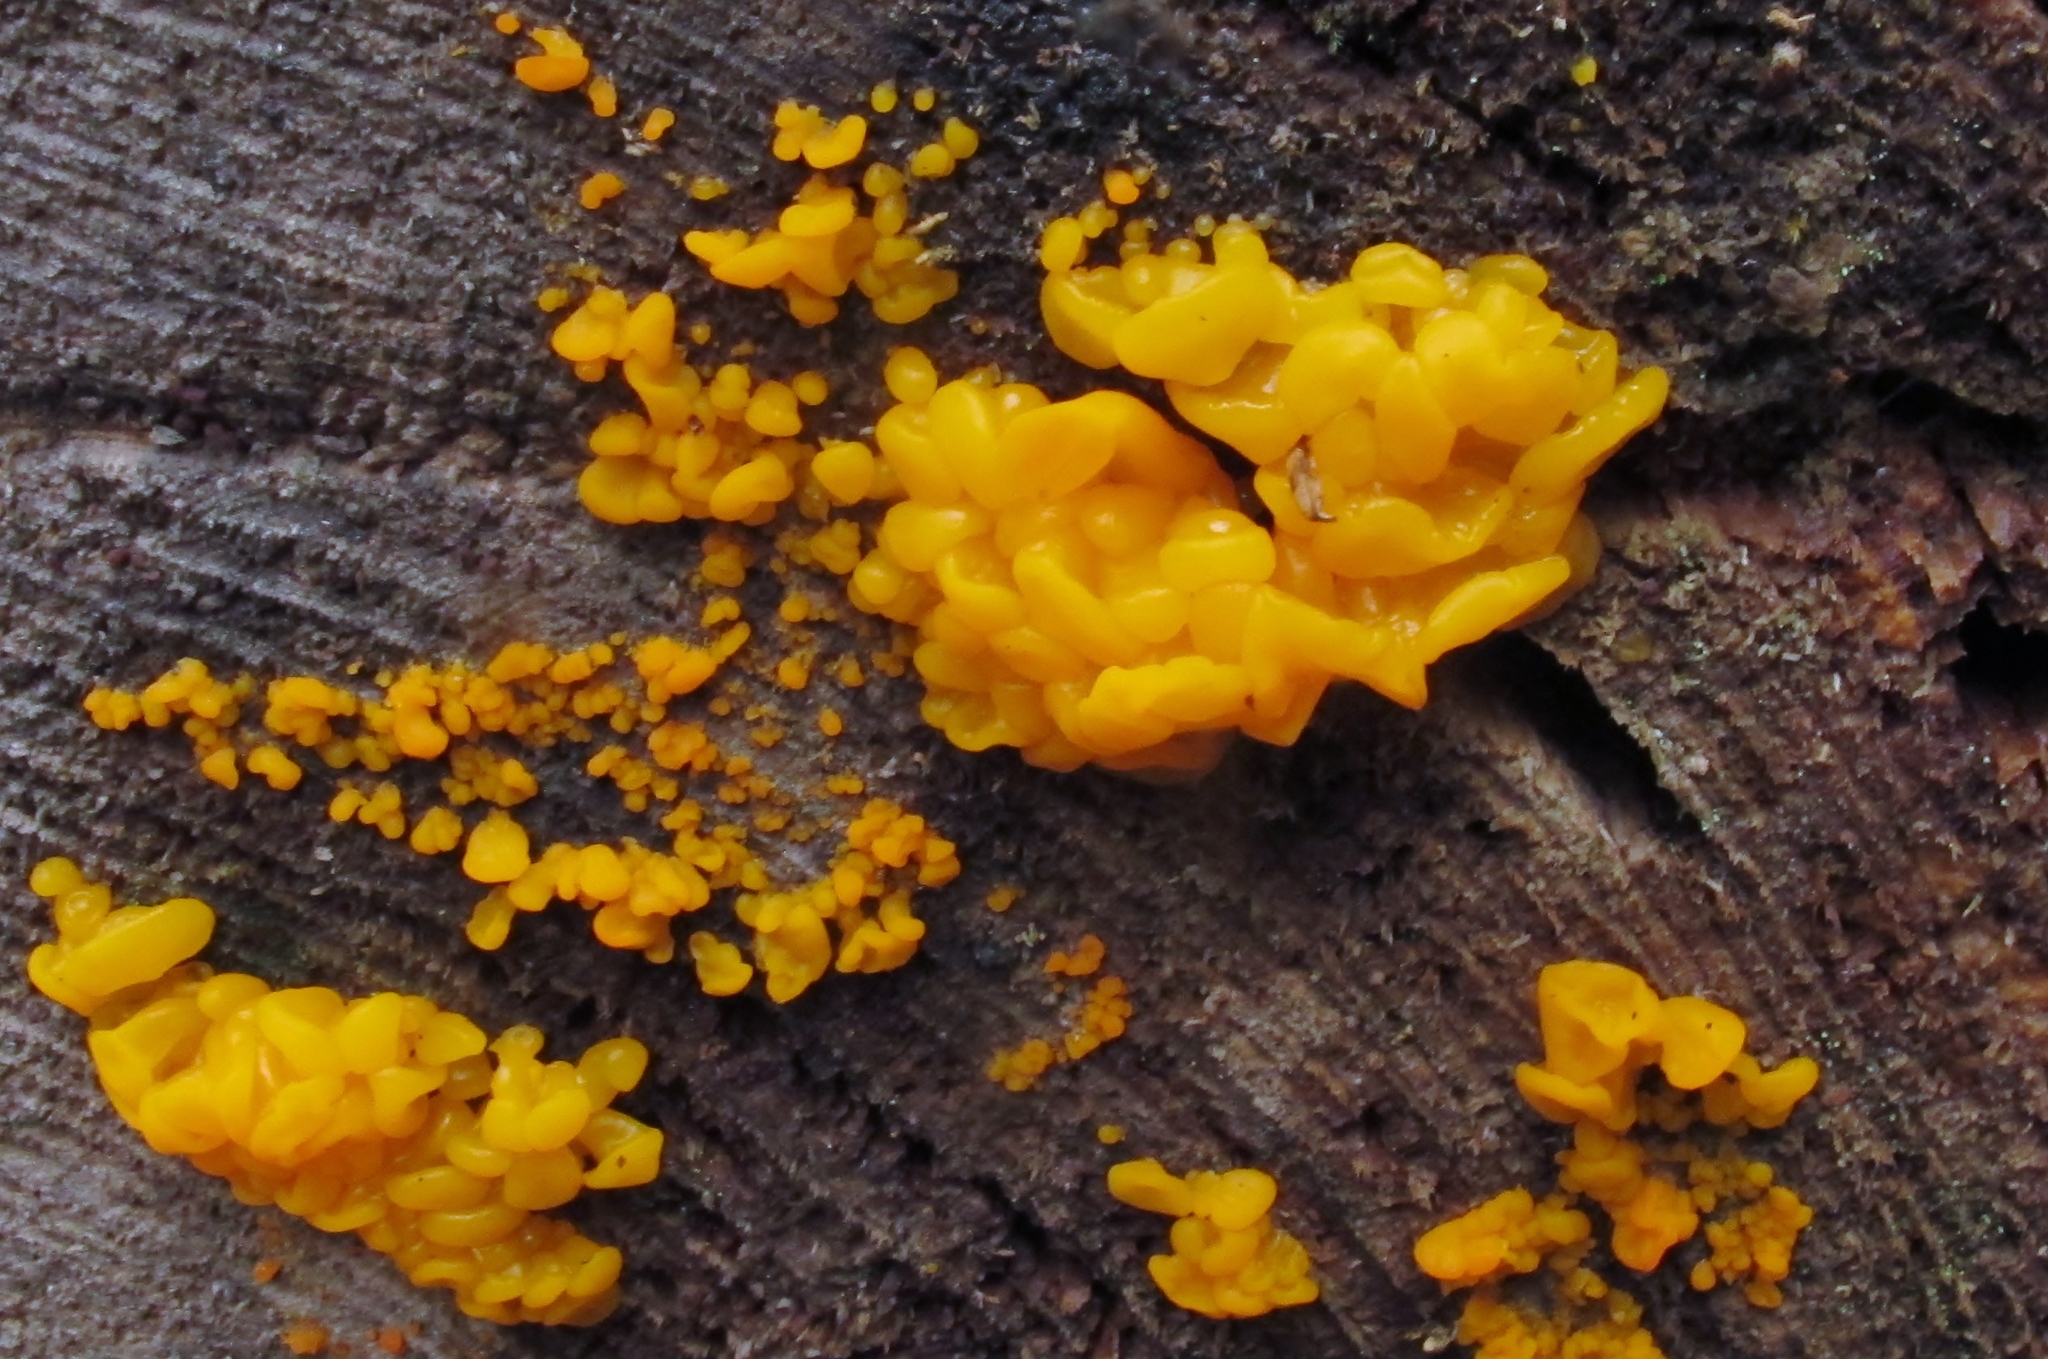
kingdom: Fungi
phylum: Basidiomycota
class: Dacrymycetes
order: Dacrymycetales
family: Dacrymycetaceae
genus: Dacrymyces
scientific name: Dacrymyces chrysospermus
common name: Orange jelly spot
